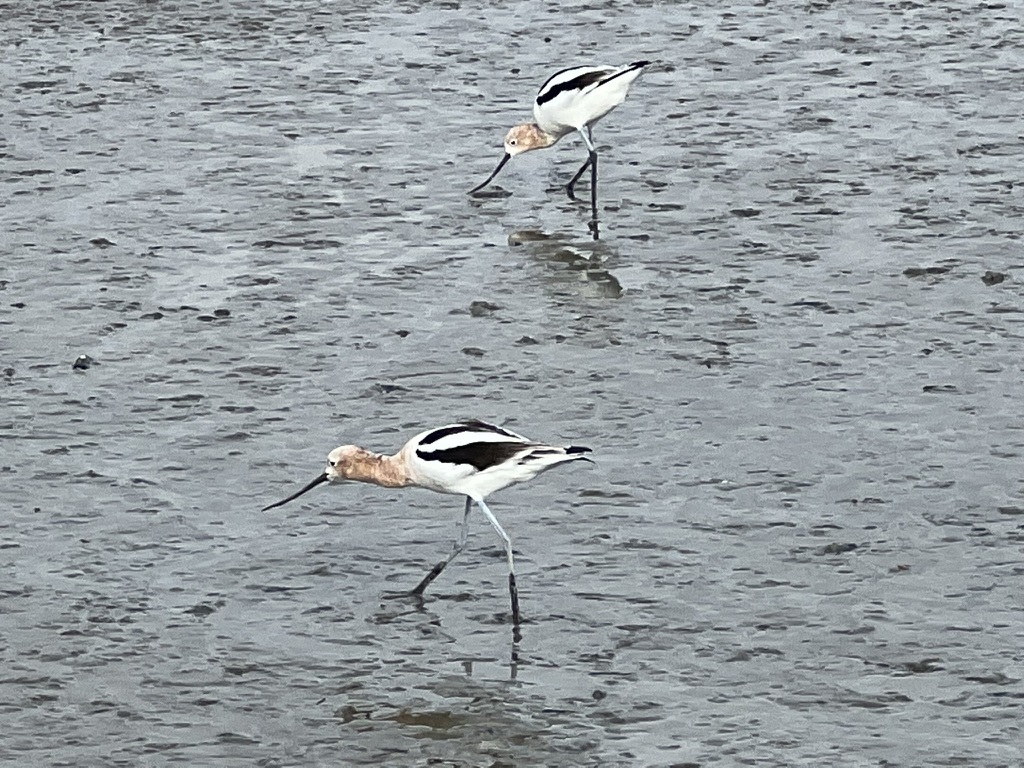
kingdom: Animalia
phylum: Chordata
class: Aves
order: Charadriiformes
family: Recurvirostridae
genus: Recurvirostra
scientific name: Recurvirostra americana
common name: American avocet
